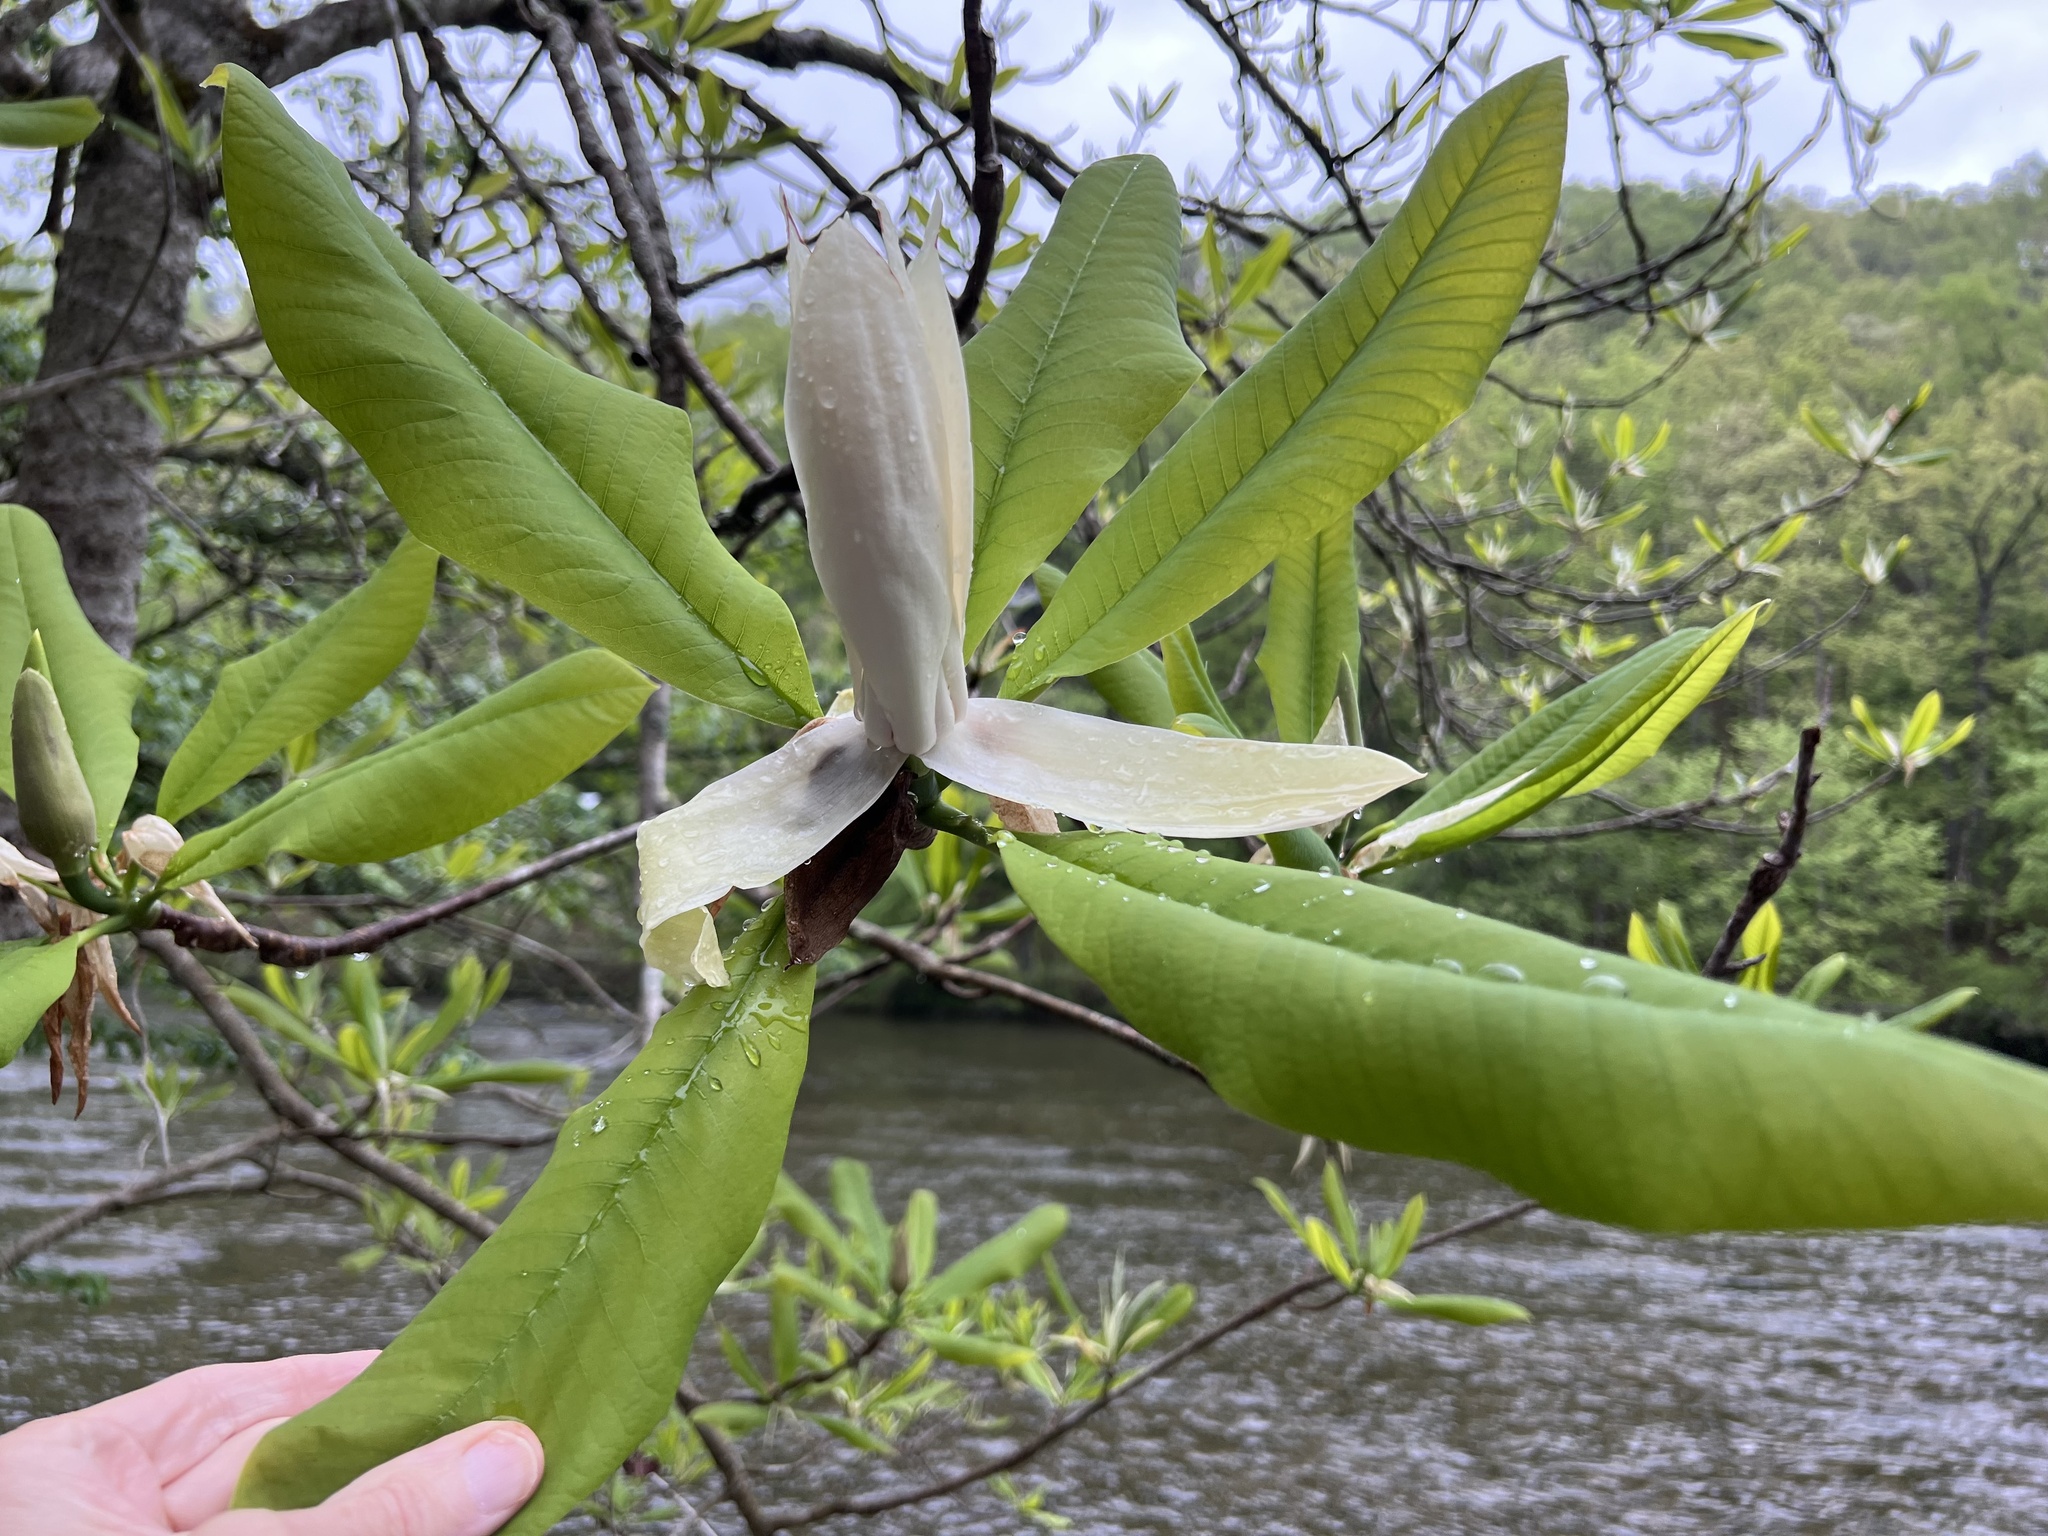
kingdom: Plantae
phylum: Tracheophyta
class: Magnoliopsida
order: Magnoliales
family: Magnoliaceae
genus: Magnolia
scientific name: Magnolia tripetala
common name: Umbrella magnolia
